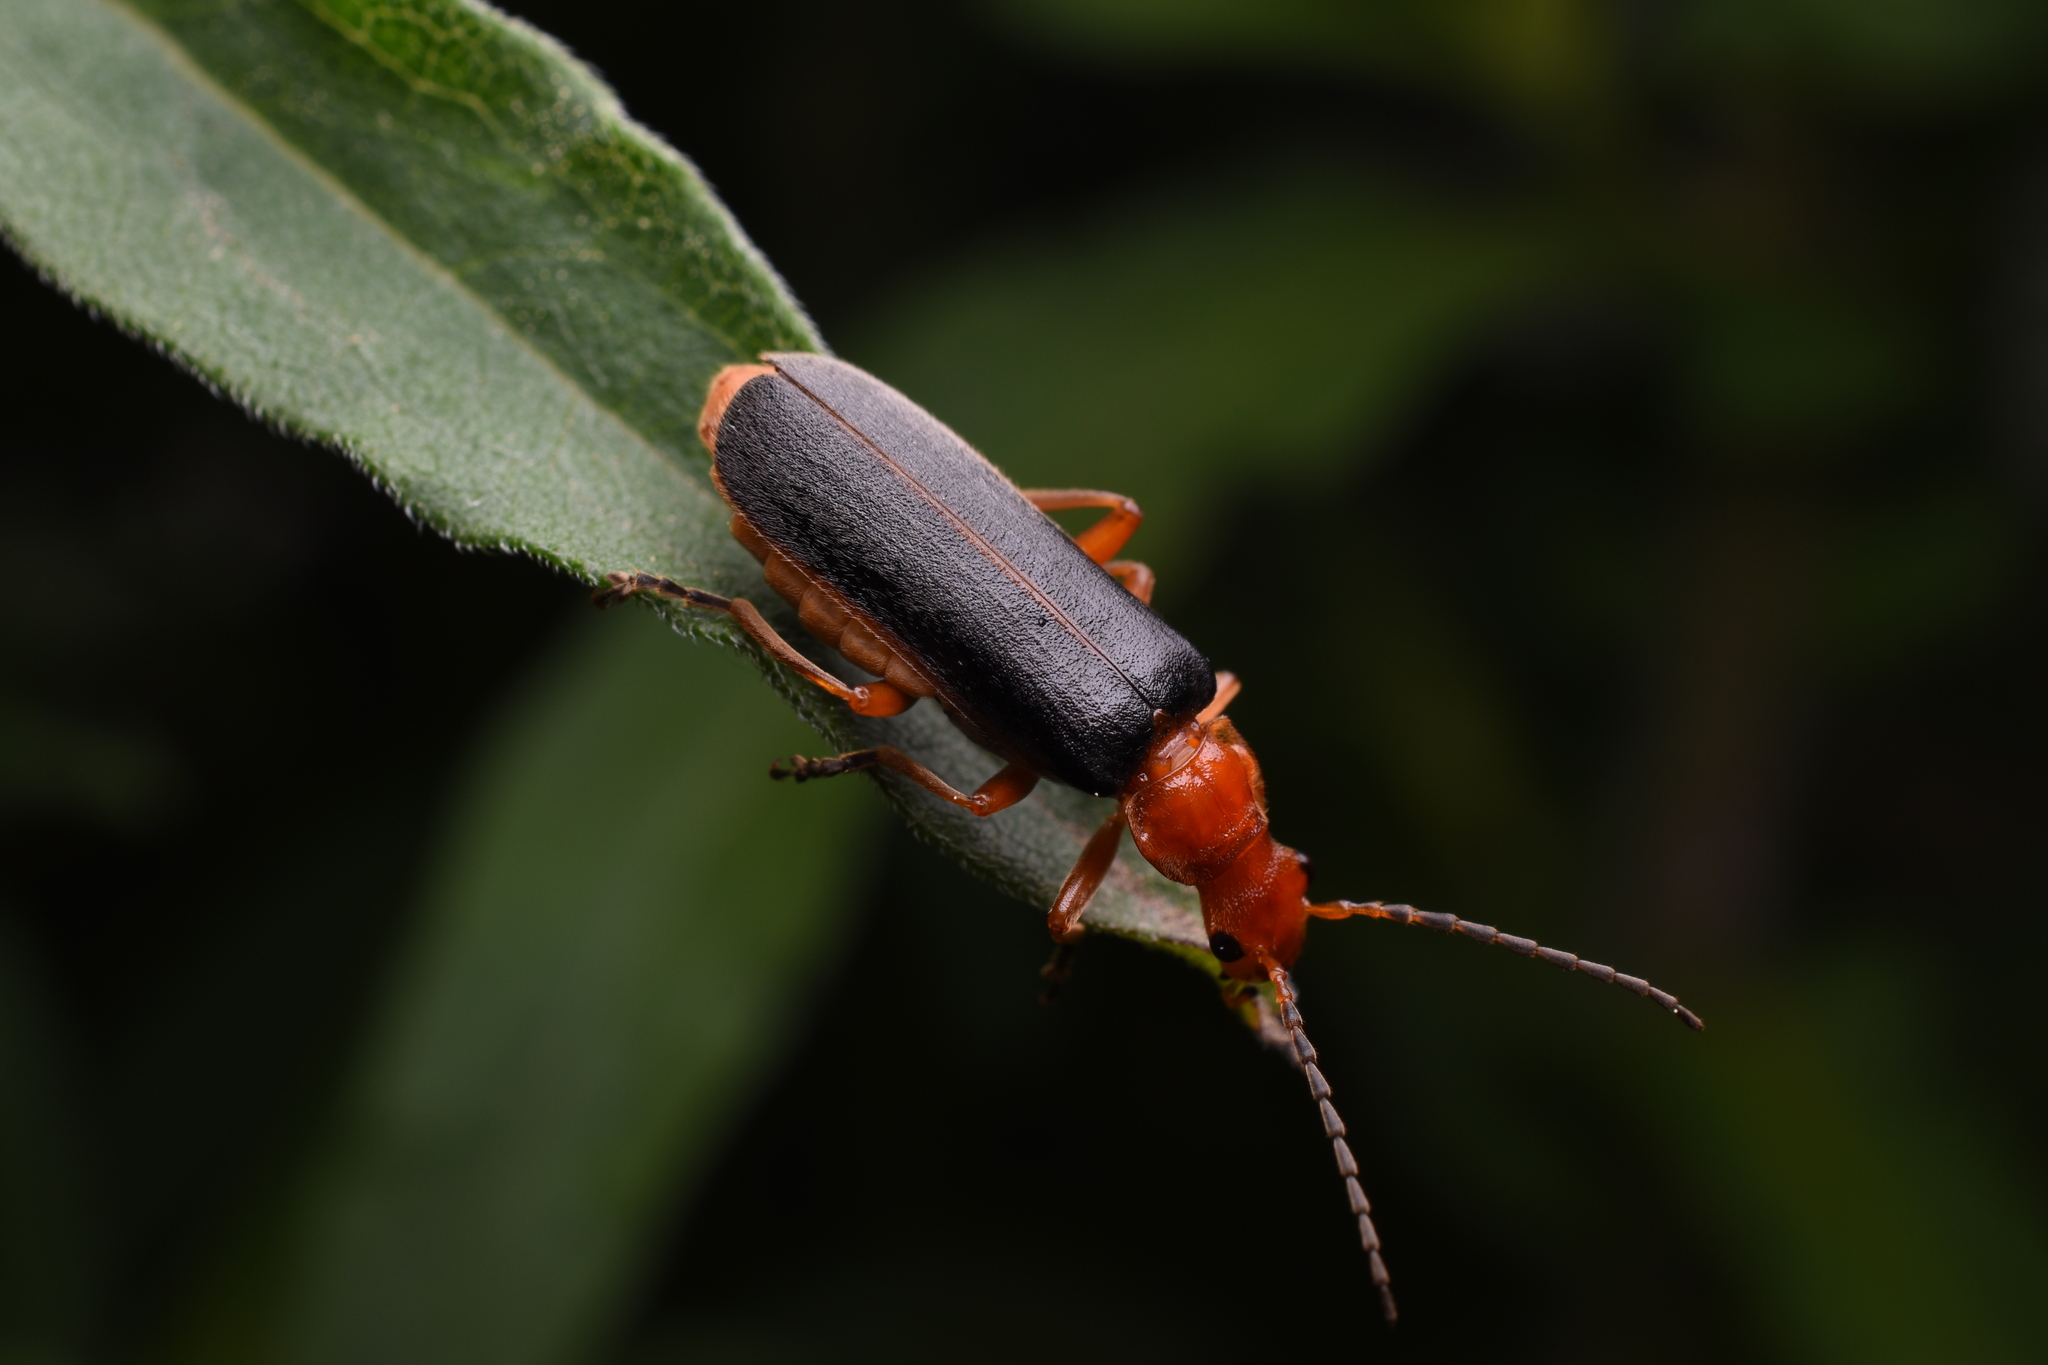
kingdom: Animalia
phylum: Arthropoda
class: Insecta
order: Coleoptera
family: Cantharidae
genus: Podabrus
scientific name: Podabrus tomentosus
